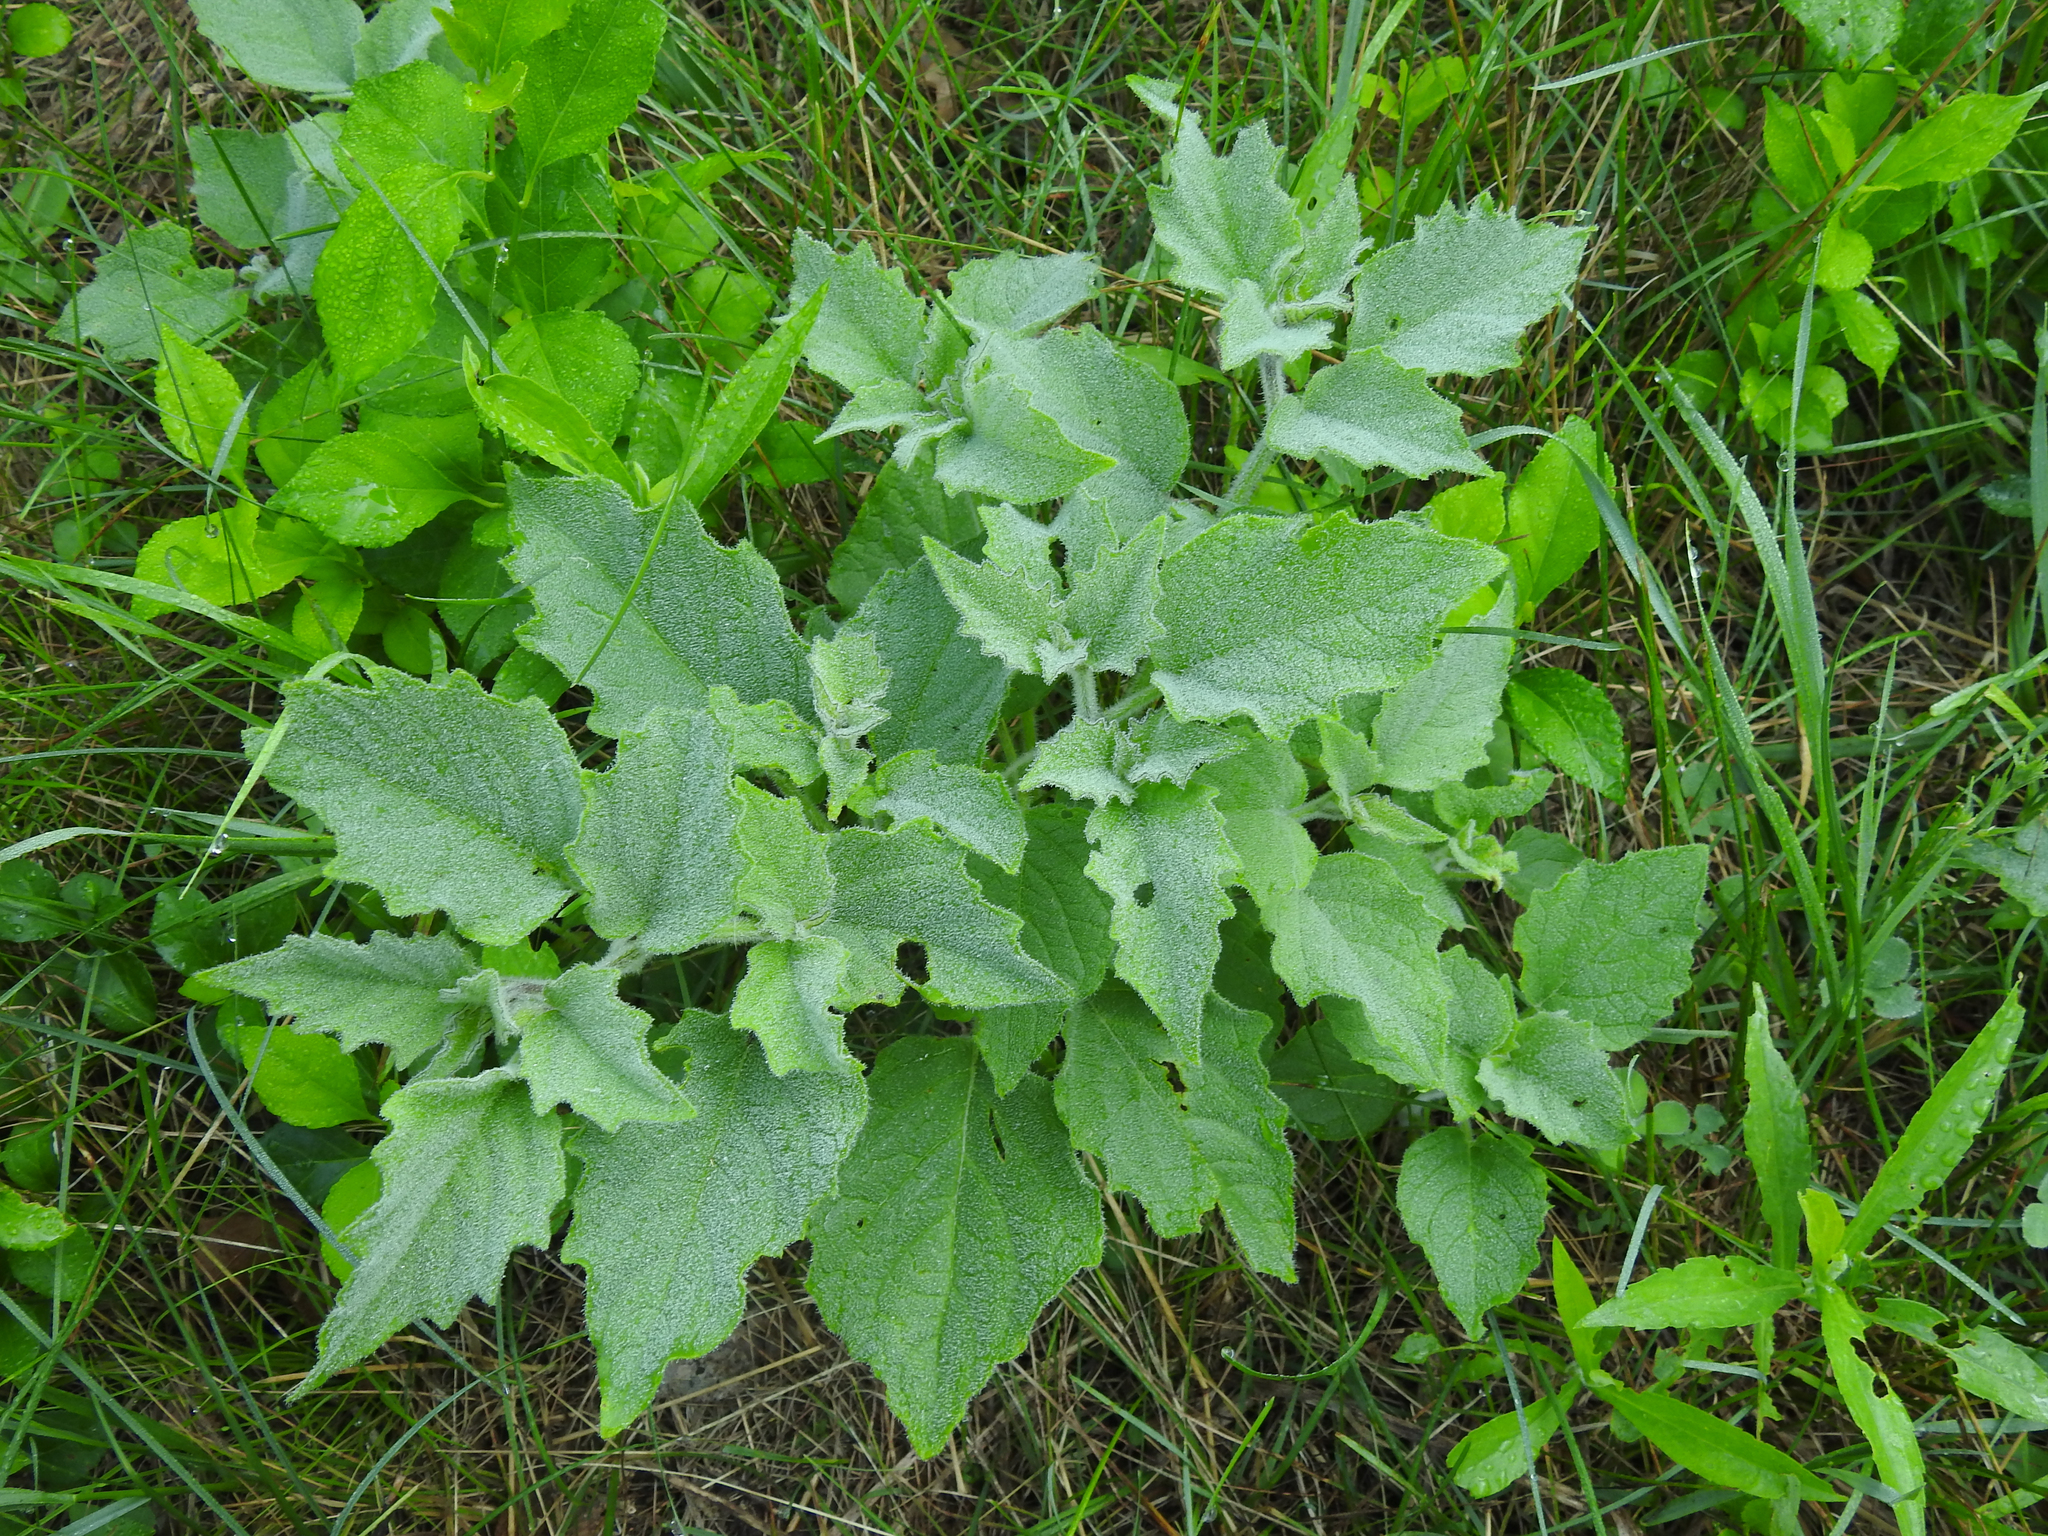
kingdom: Plantae
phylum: Tracheophyta
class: Magnoliopsida
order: Solanales
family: Solanaceae
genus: Physalis
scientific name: Physalis heterophylla
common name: Clammy ground-cherry
